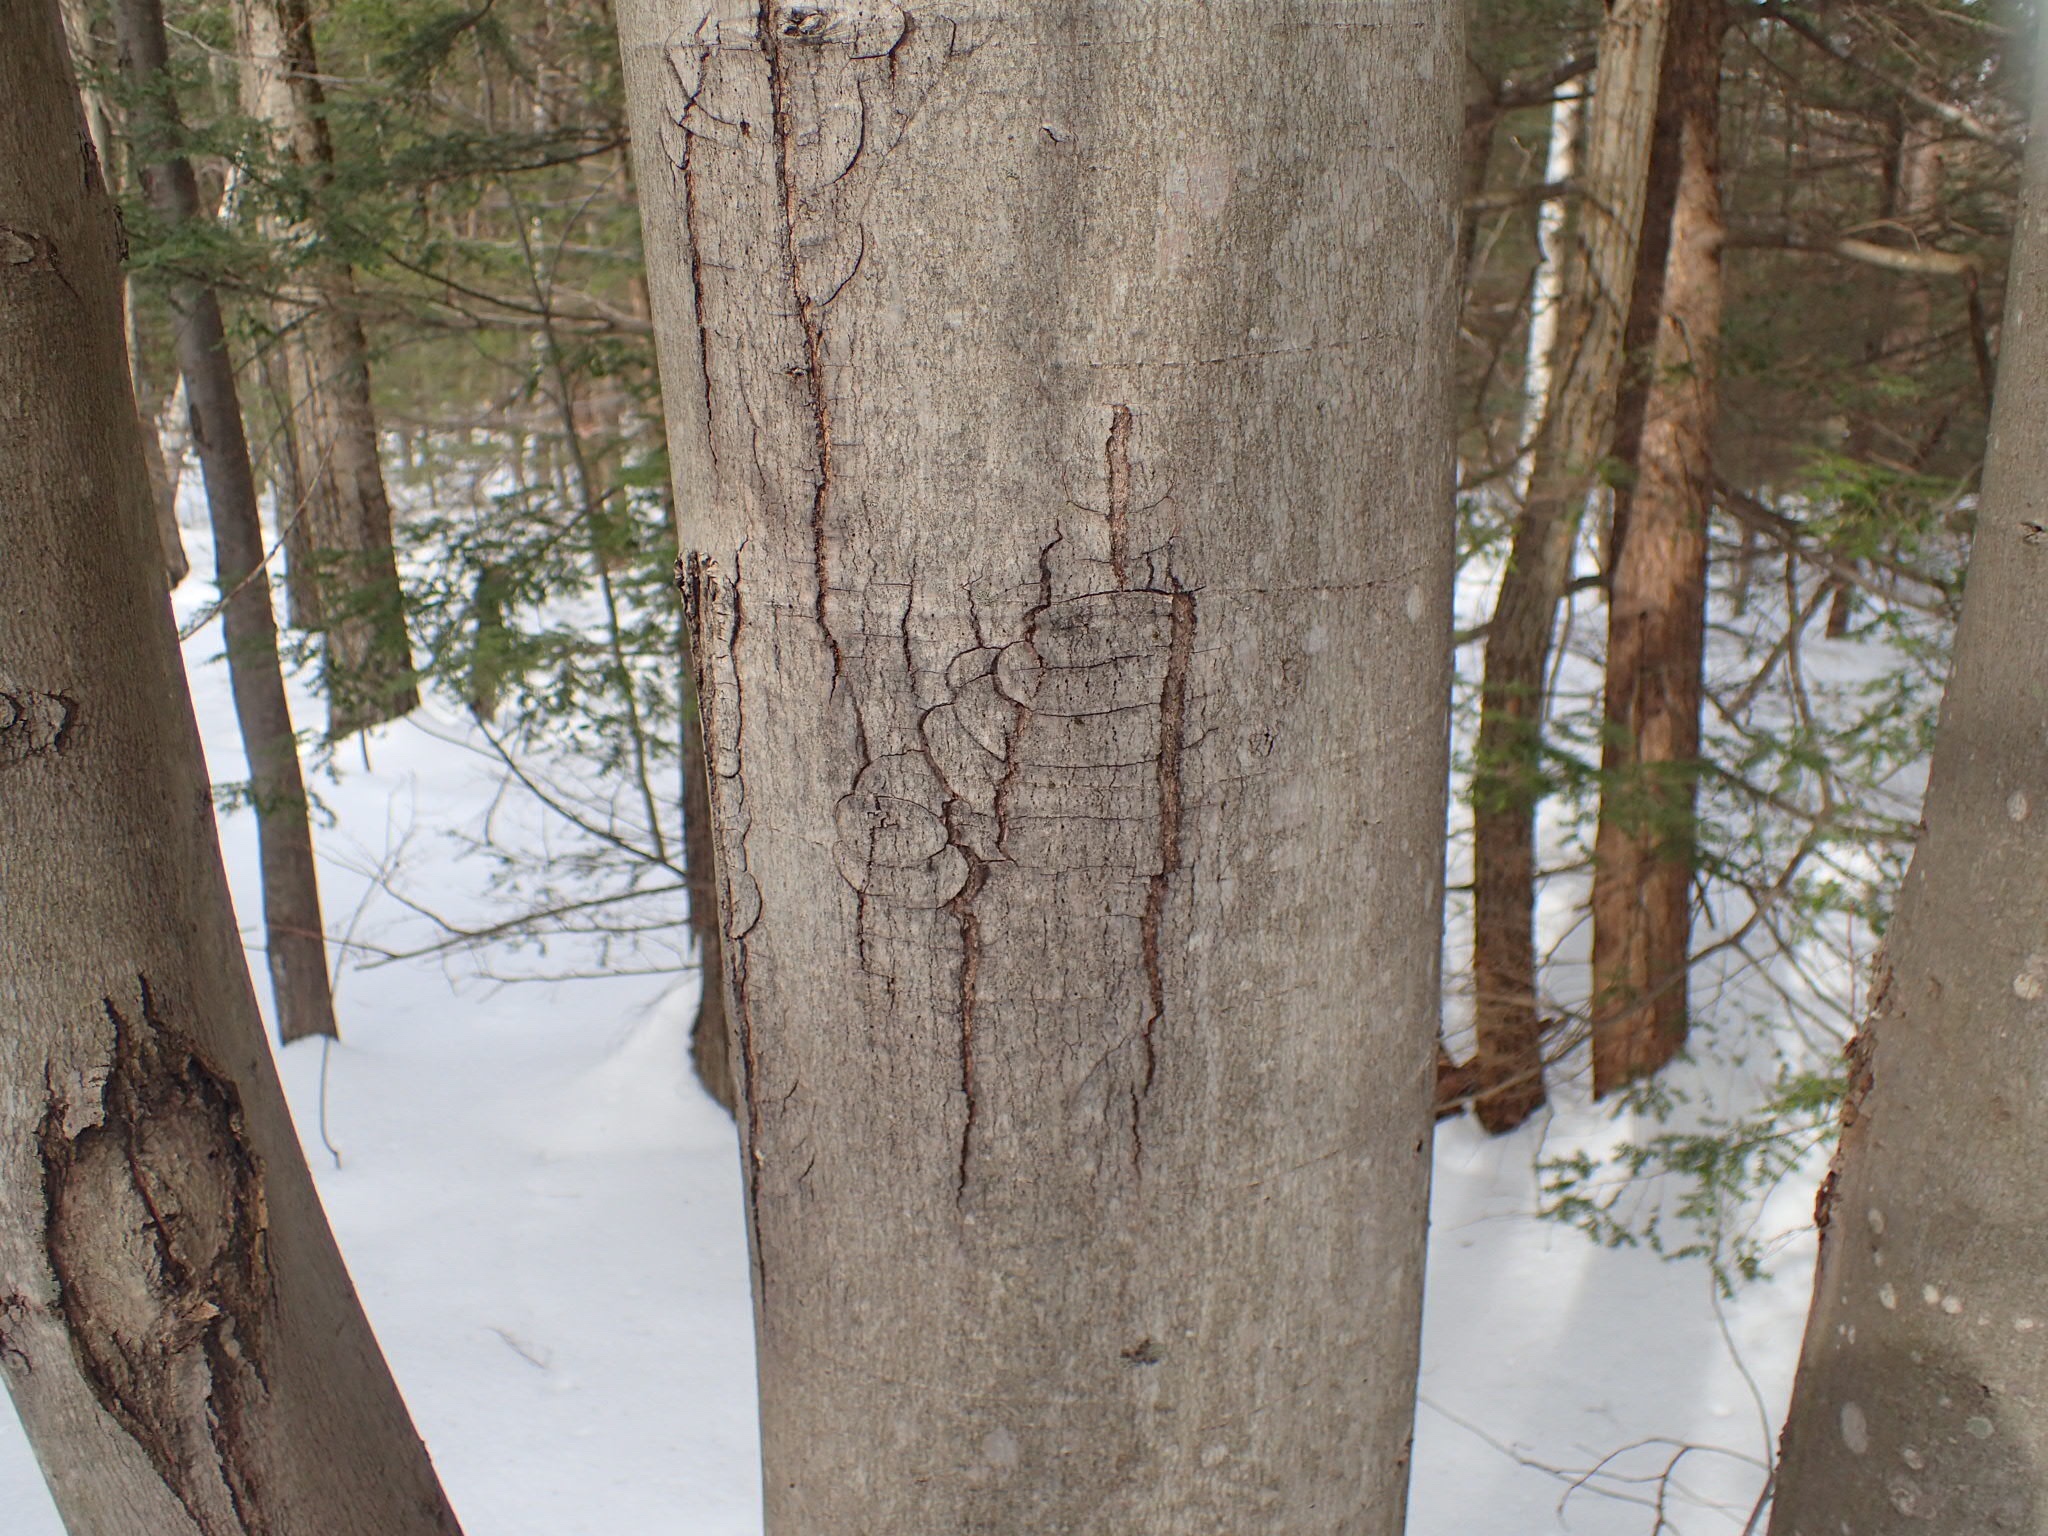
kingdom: Plantae
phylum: Tracheophyta
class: Magnoliopsida
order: Sapindales
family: Sapindaceae
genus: Acer
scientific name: Acer rubrum
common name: Red maple
